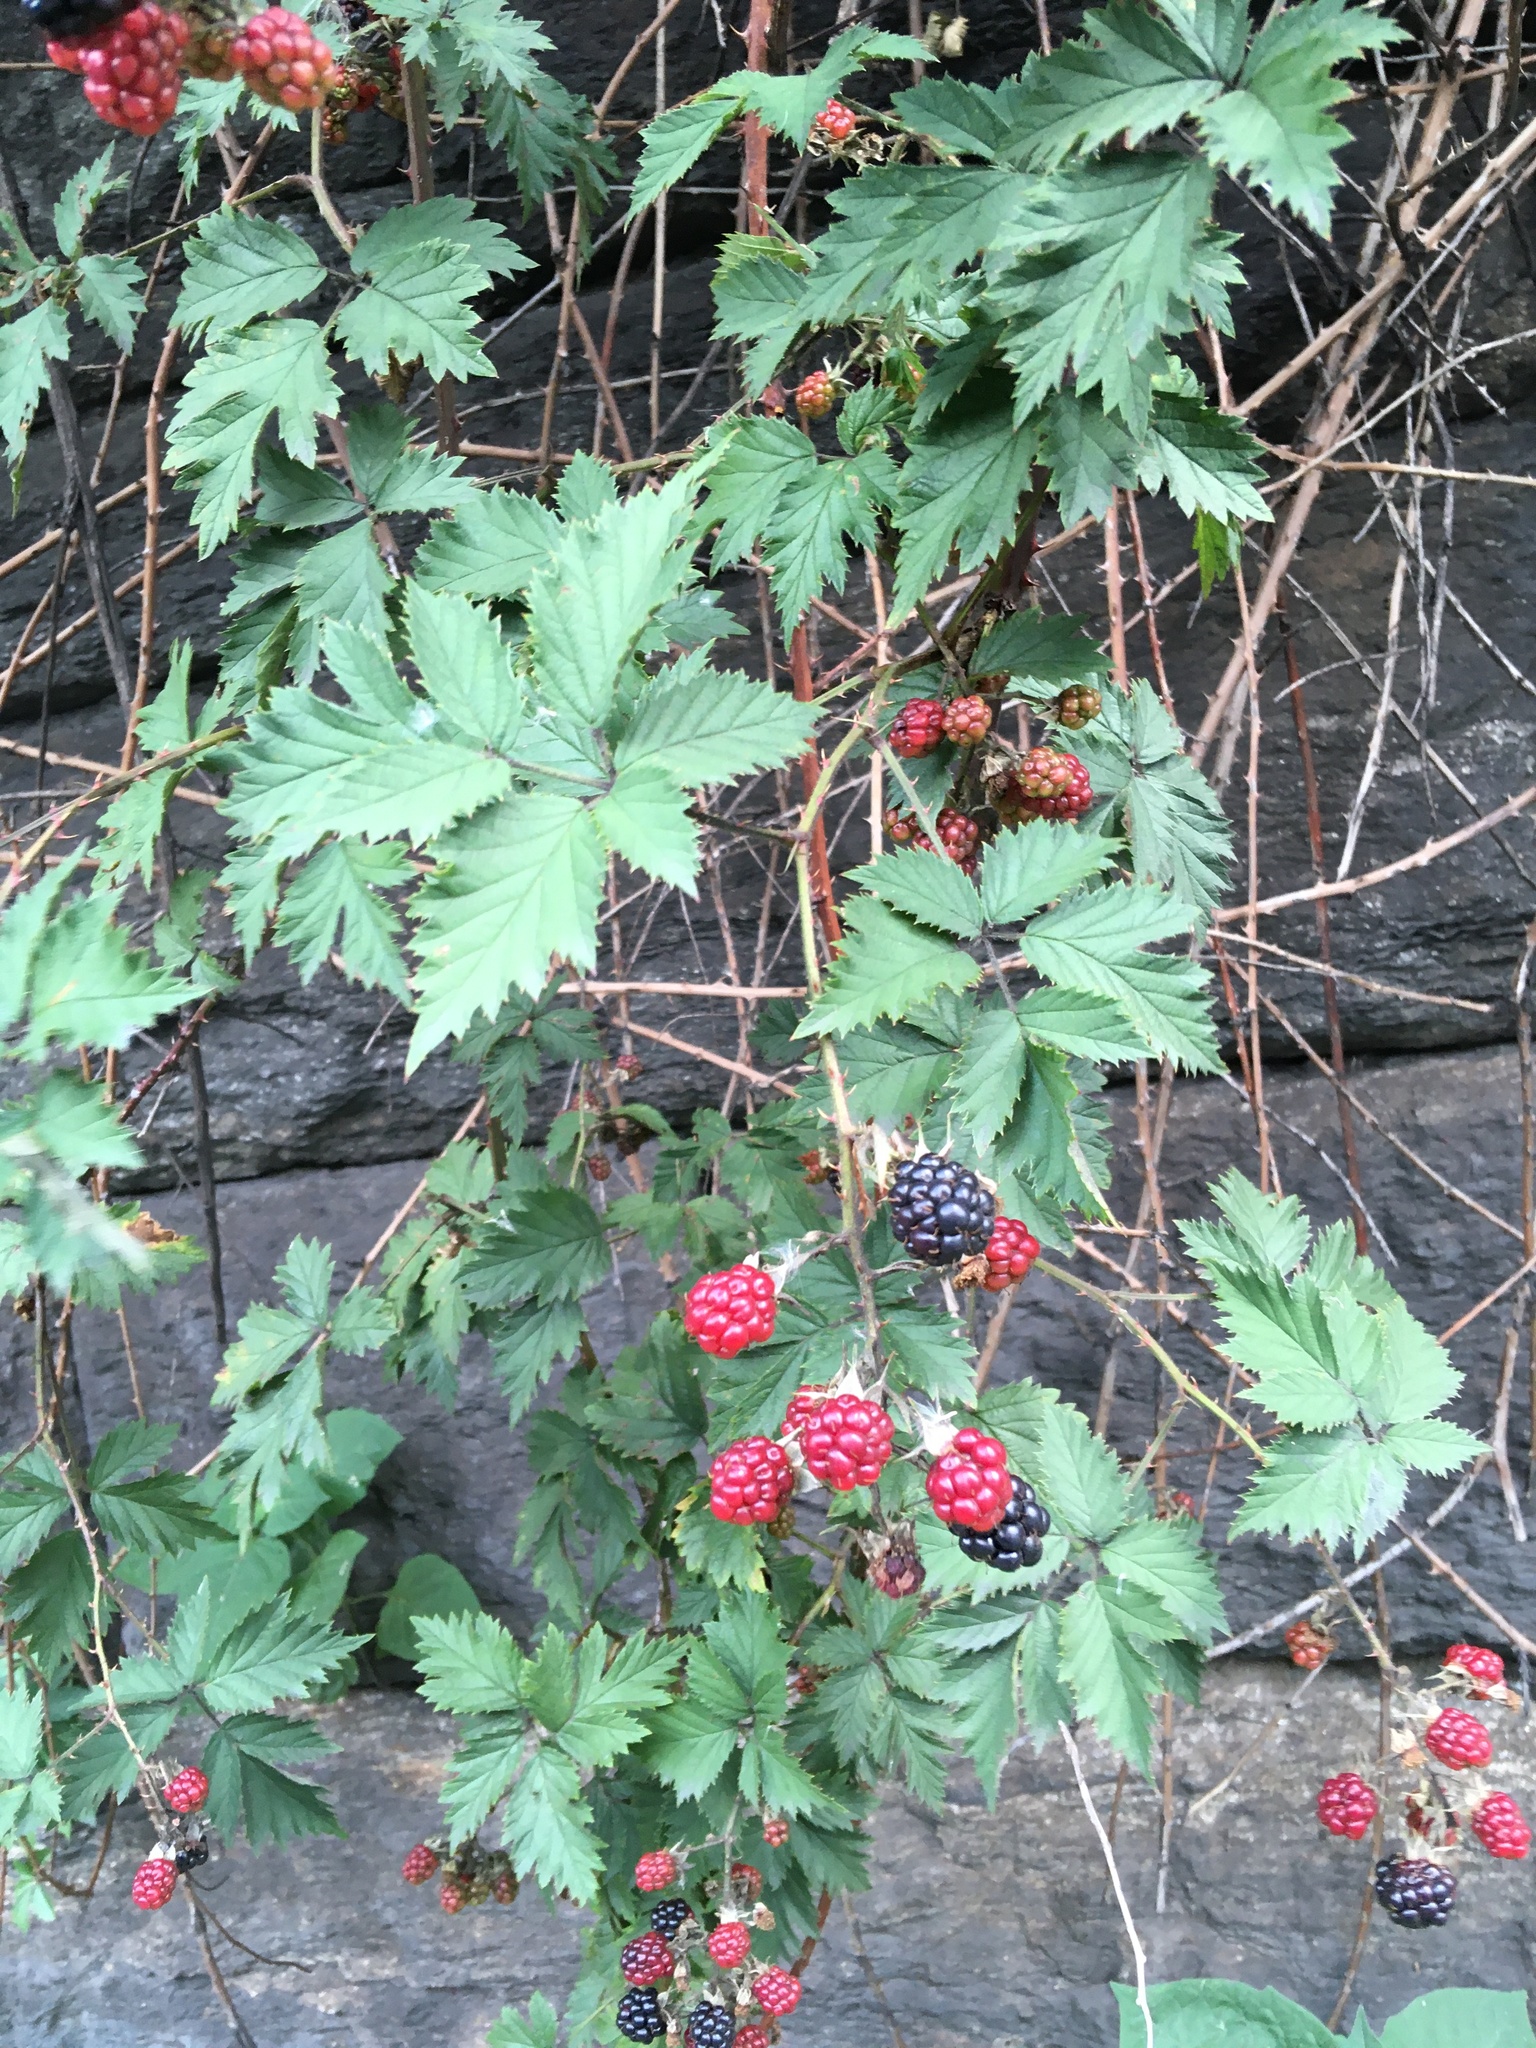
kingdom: Plantae
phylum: Tracheophyta
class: Magnoliopsida
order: Rosales
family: Rosaceae
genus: Rubus
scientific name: Rubus laciniatus
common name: Evergreen blackberry
